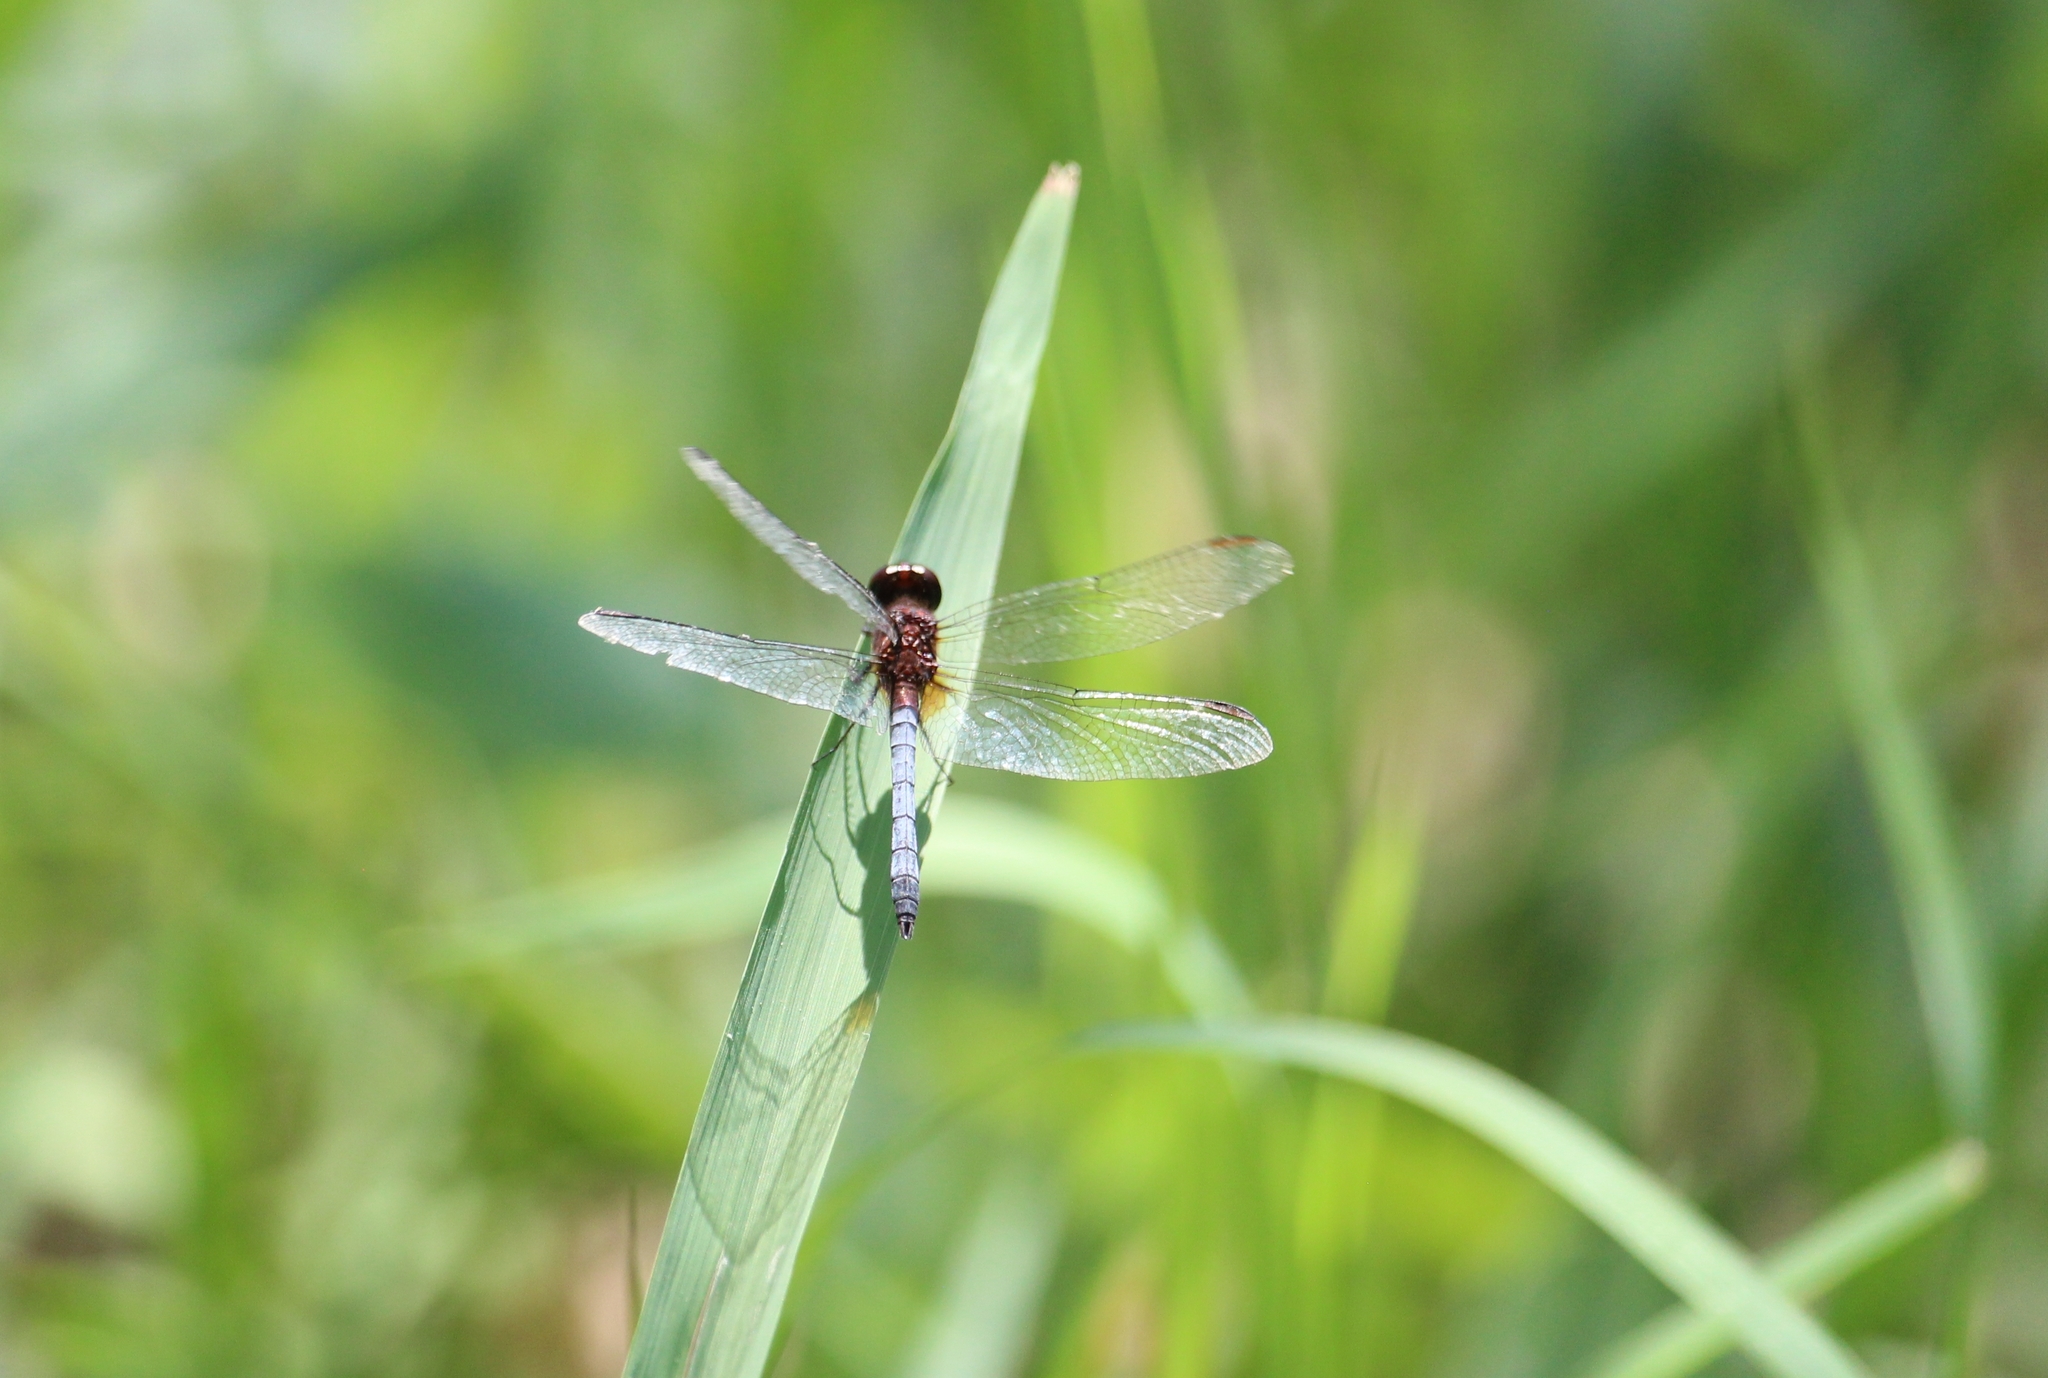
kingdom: Animalia
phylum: Arthropoda
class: Insecta
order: Odonata
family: Libellulidae
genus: Erythrodiplax
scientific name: Erythrodiplax fusca
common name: Red-faced dragonlet
